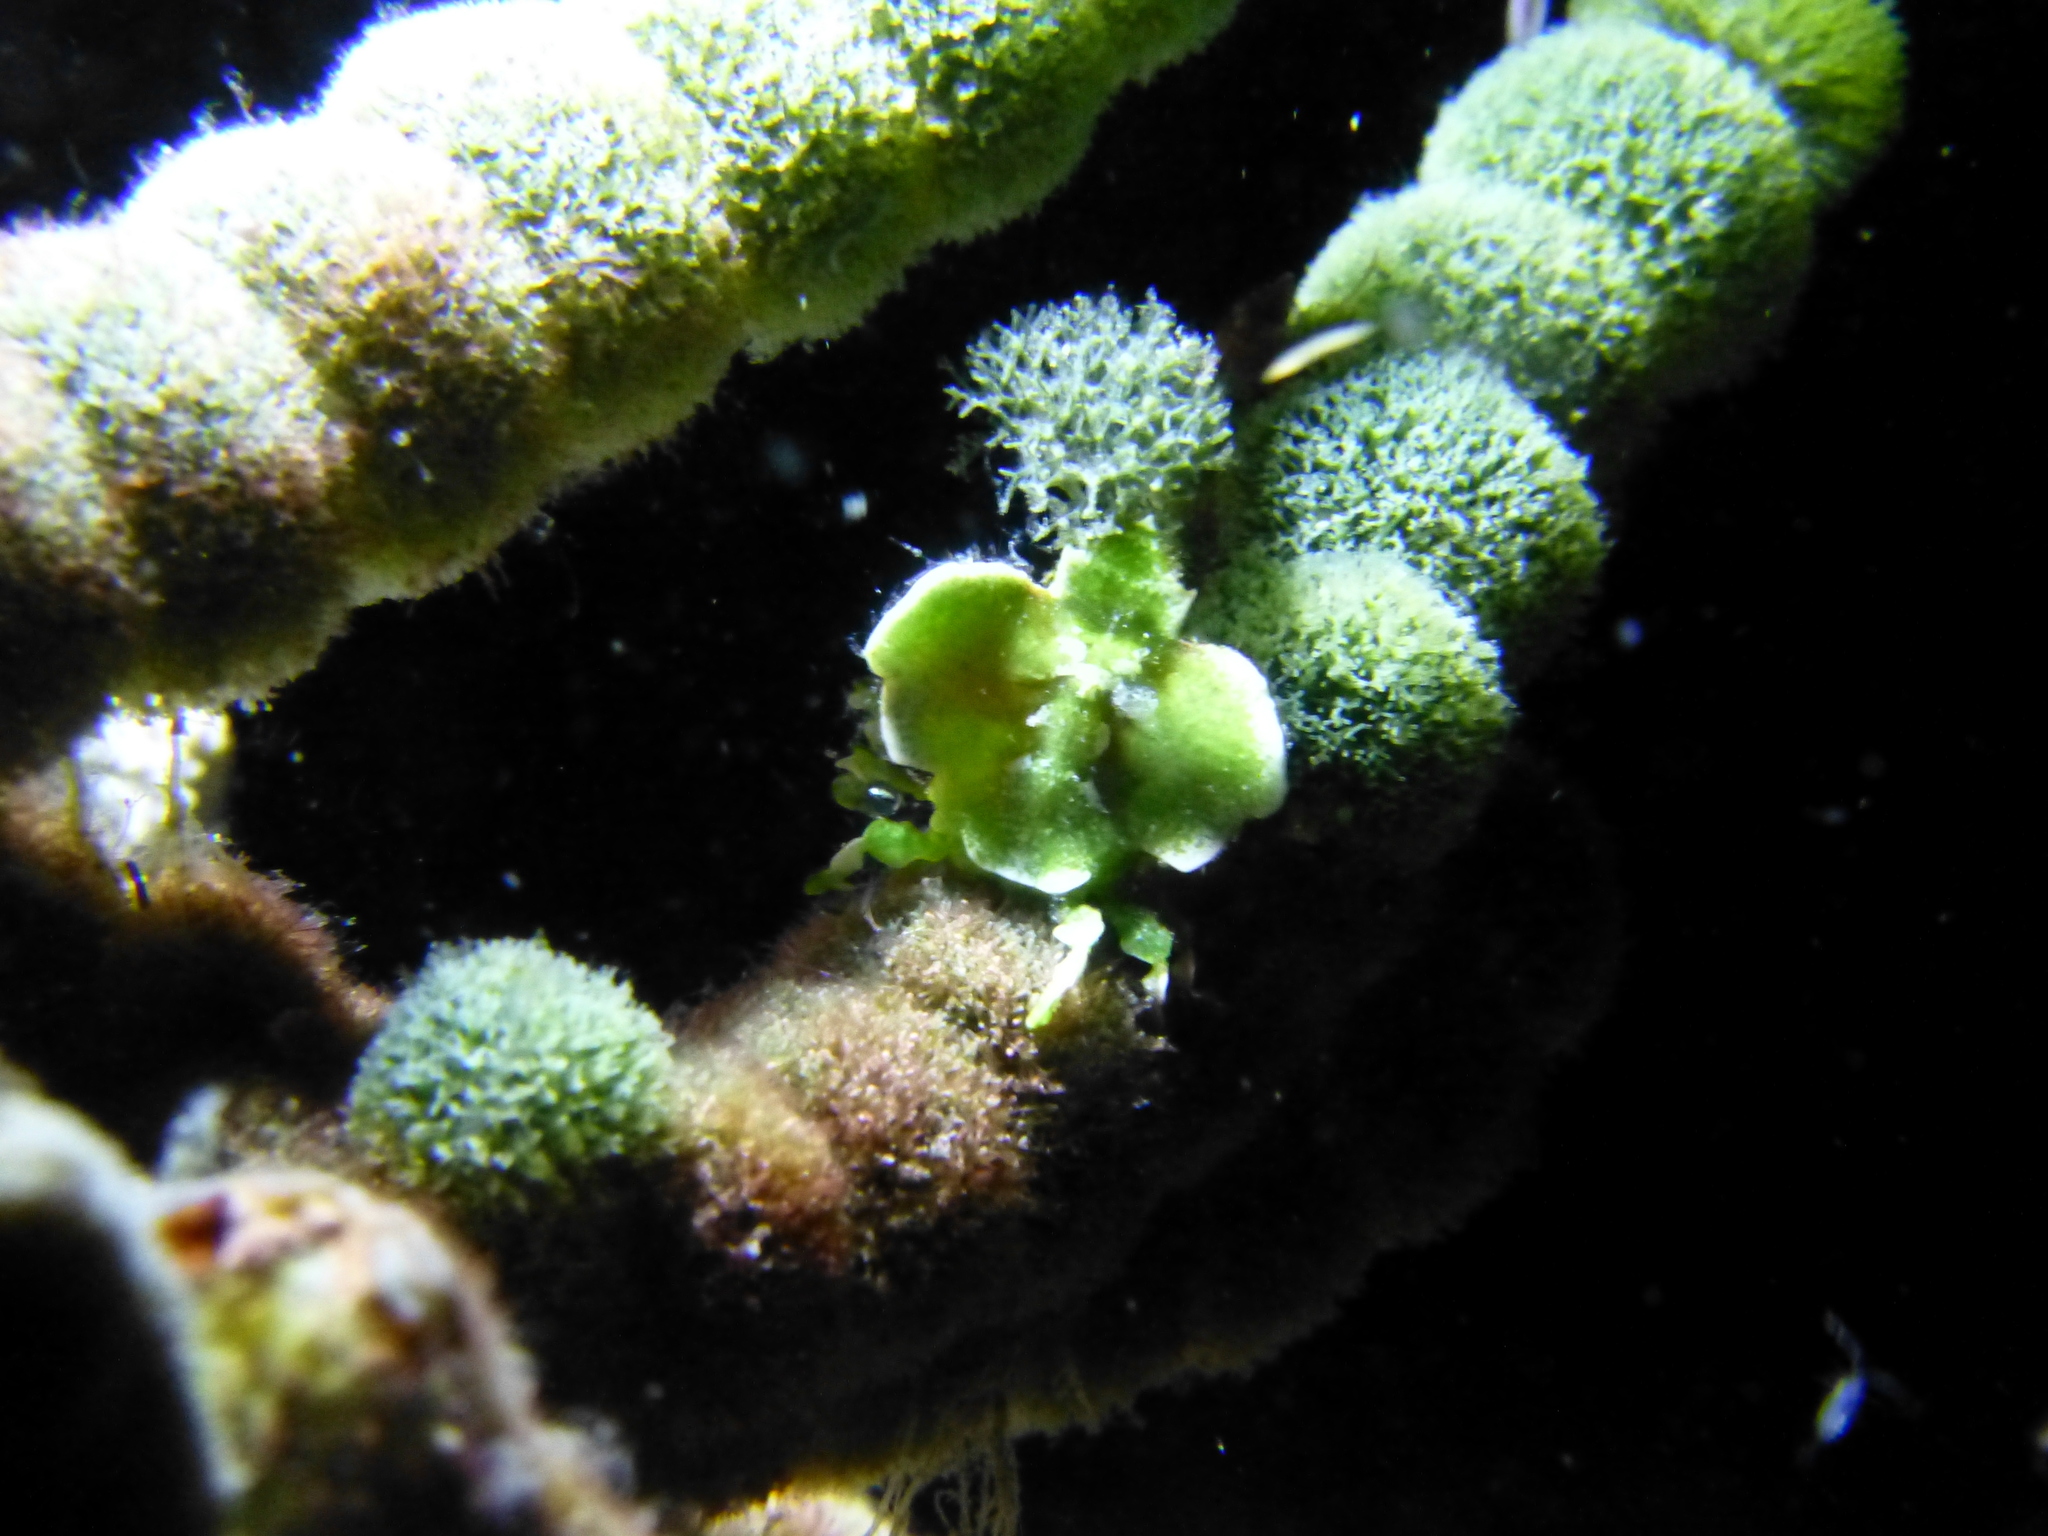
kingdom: Animalia
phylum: Arthropoda
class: Malacostraca
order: Decapoda
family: Epialtidae
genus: Huenia
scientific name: Huenia heraldica
